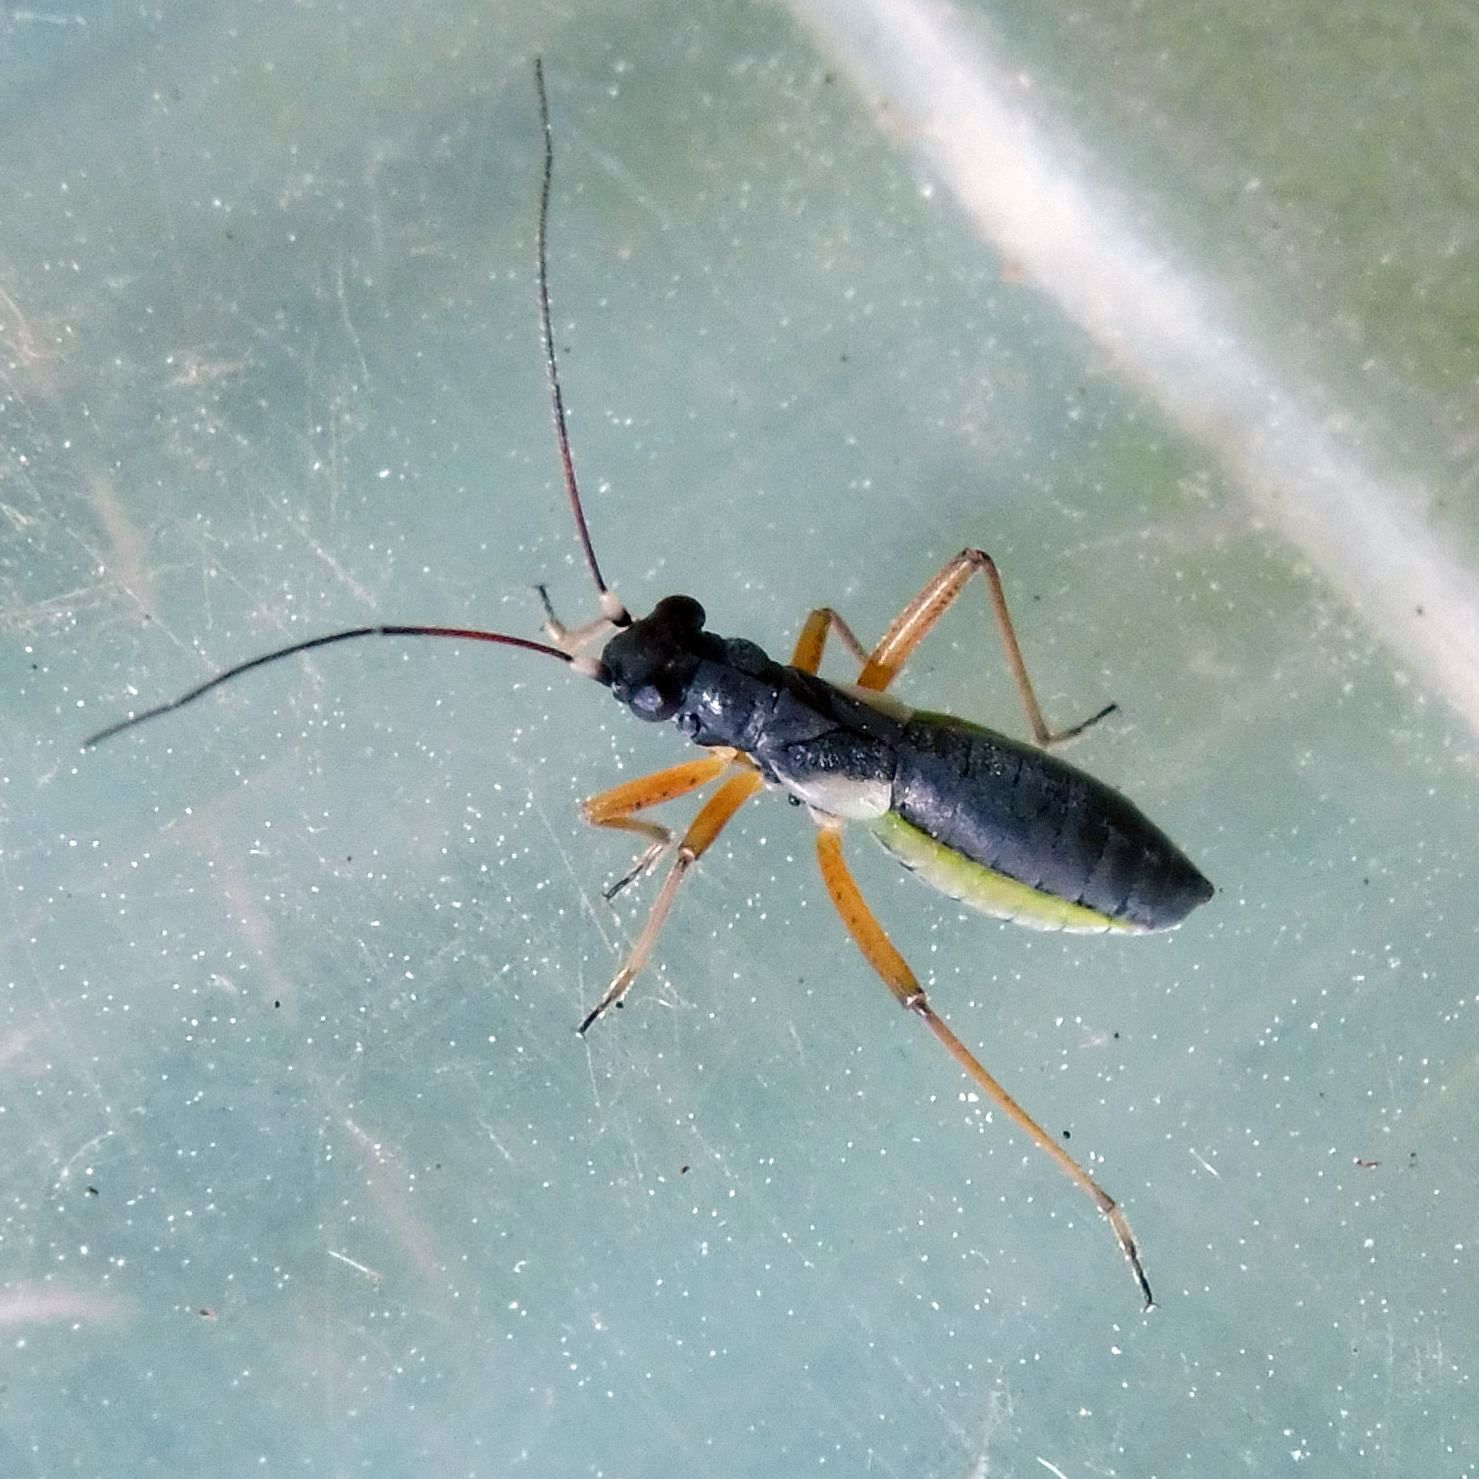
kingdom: Animalia
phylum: Arthropoda
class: Insecta
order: Hemiptera
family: Miridae
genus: Pithanus
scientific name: Pithanus maerkelii
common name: Plant bug
